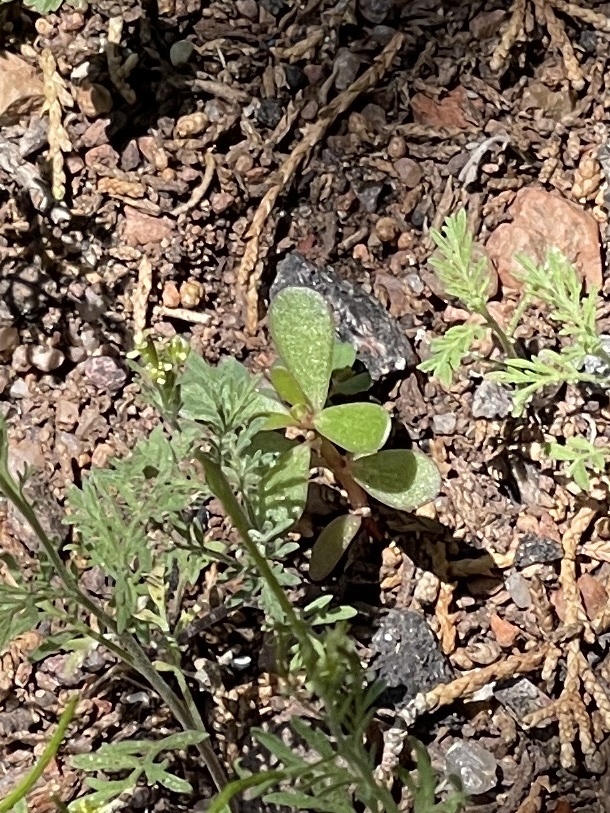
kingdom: Plantae
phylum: Tracheophyta
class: Magnoliopsida
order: Caryophyllales
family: Portulacaceae
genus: Portulaca
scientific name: Portulaca oleracea
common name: Common purslane
